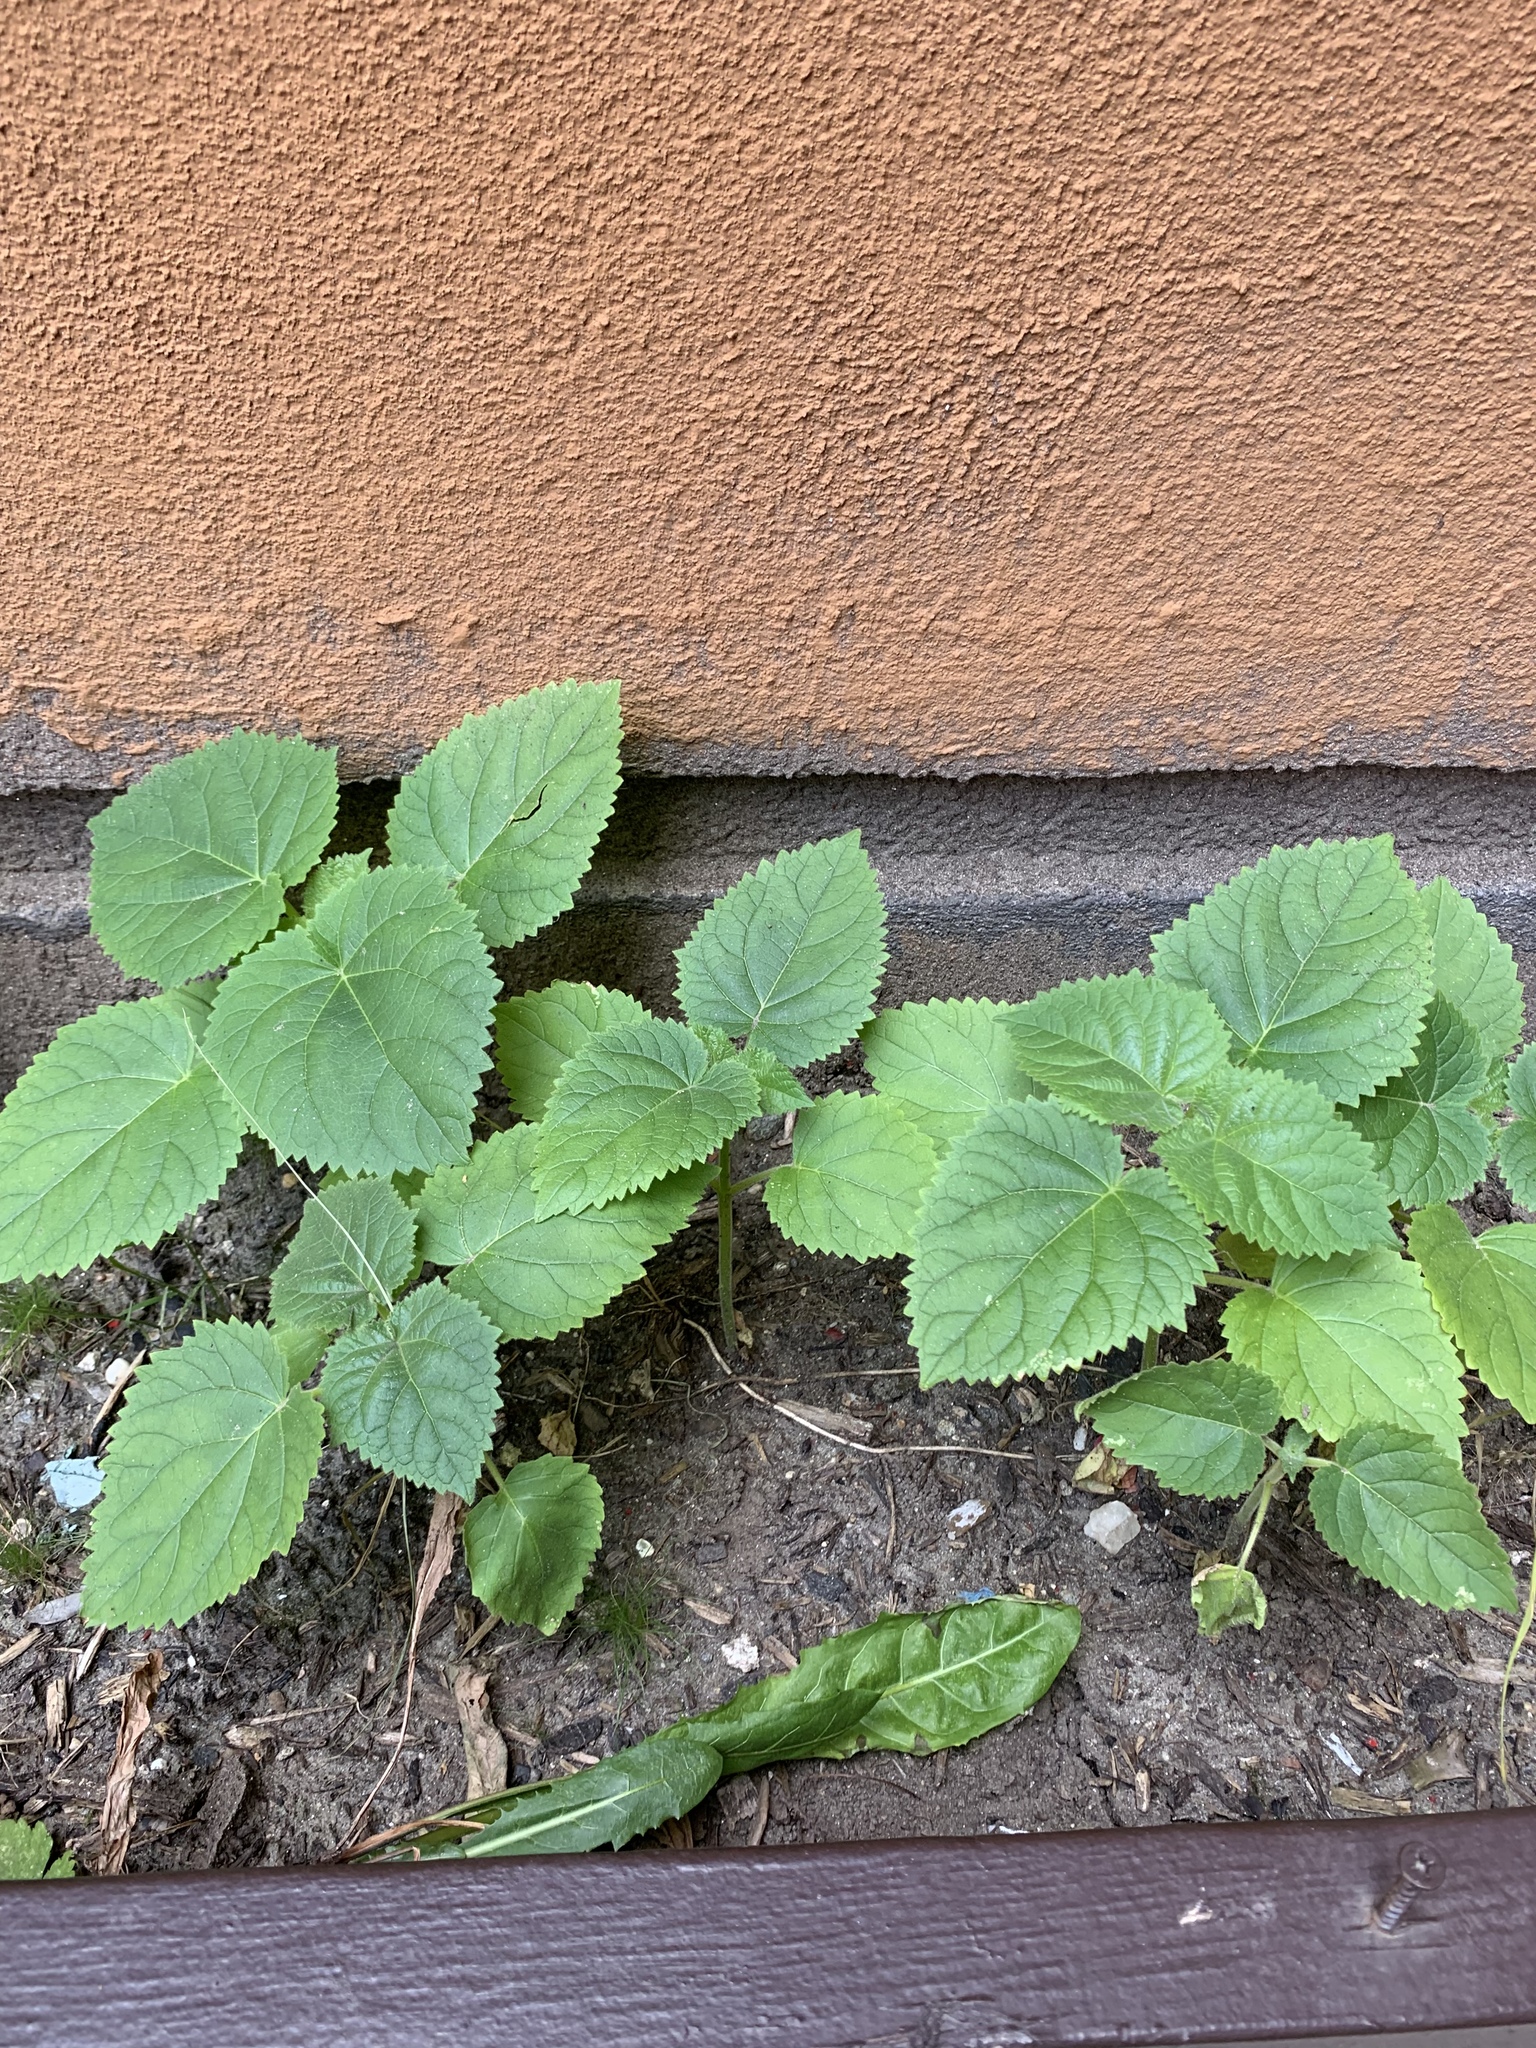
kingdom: Plantae
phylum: Tracheophyta
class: Magnoliopsida
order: Lamiales
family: Paulowniaceae
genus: Paulownia
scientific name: Paulownia tomentosa
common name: Foxglove-tree
